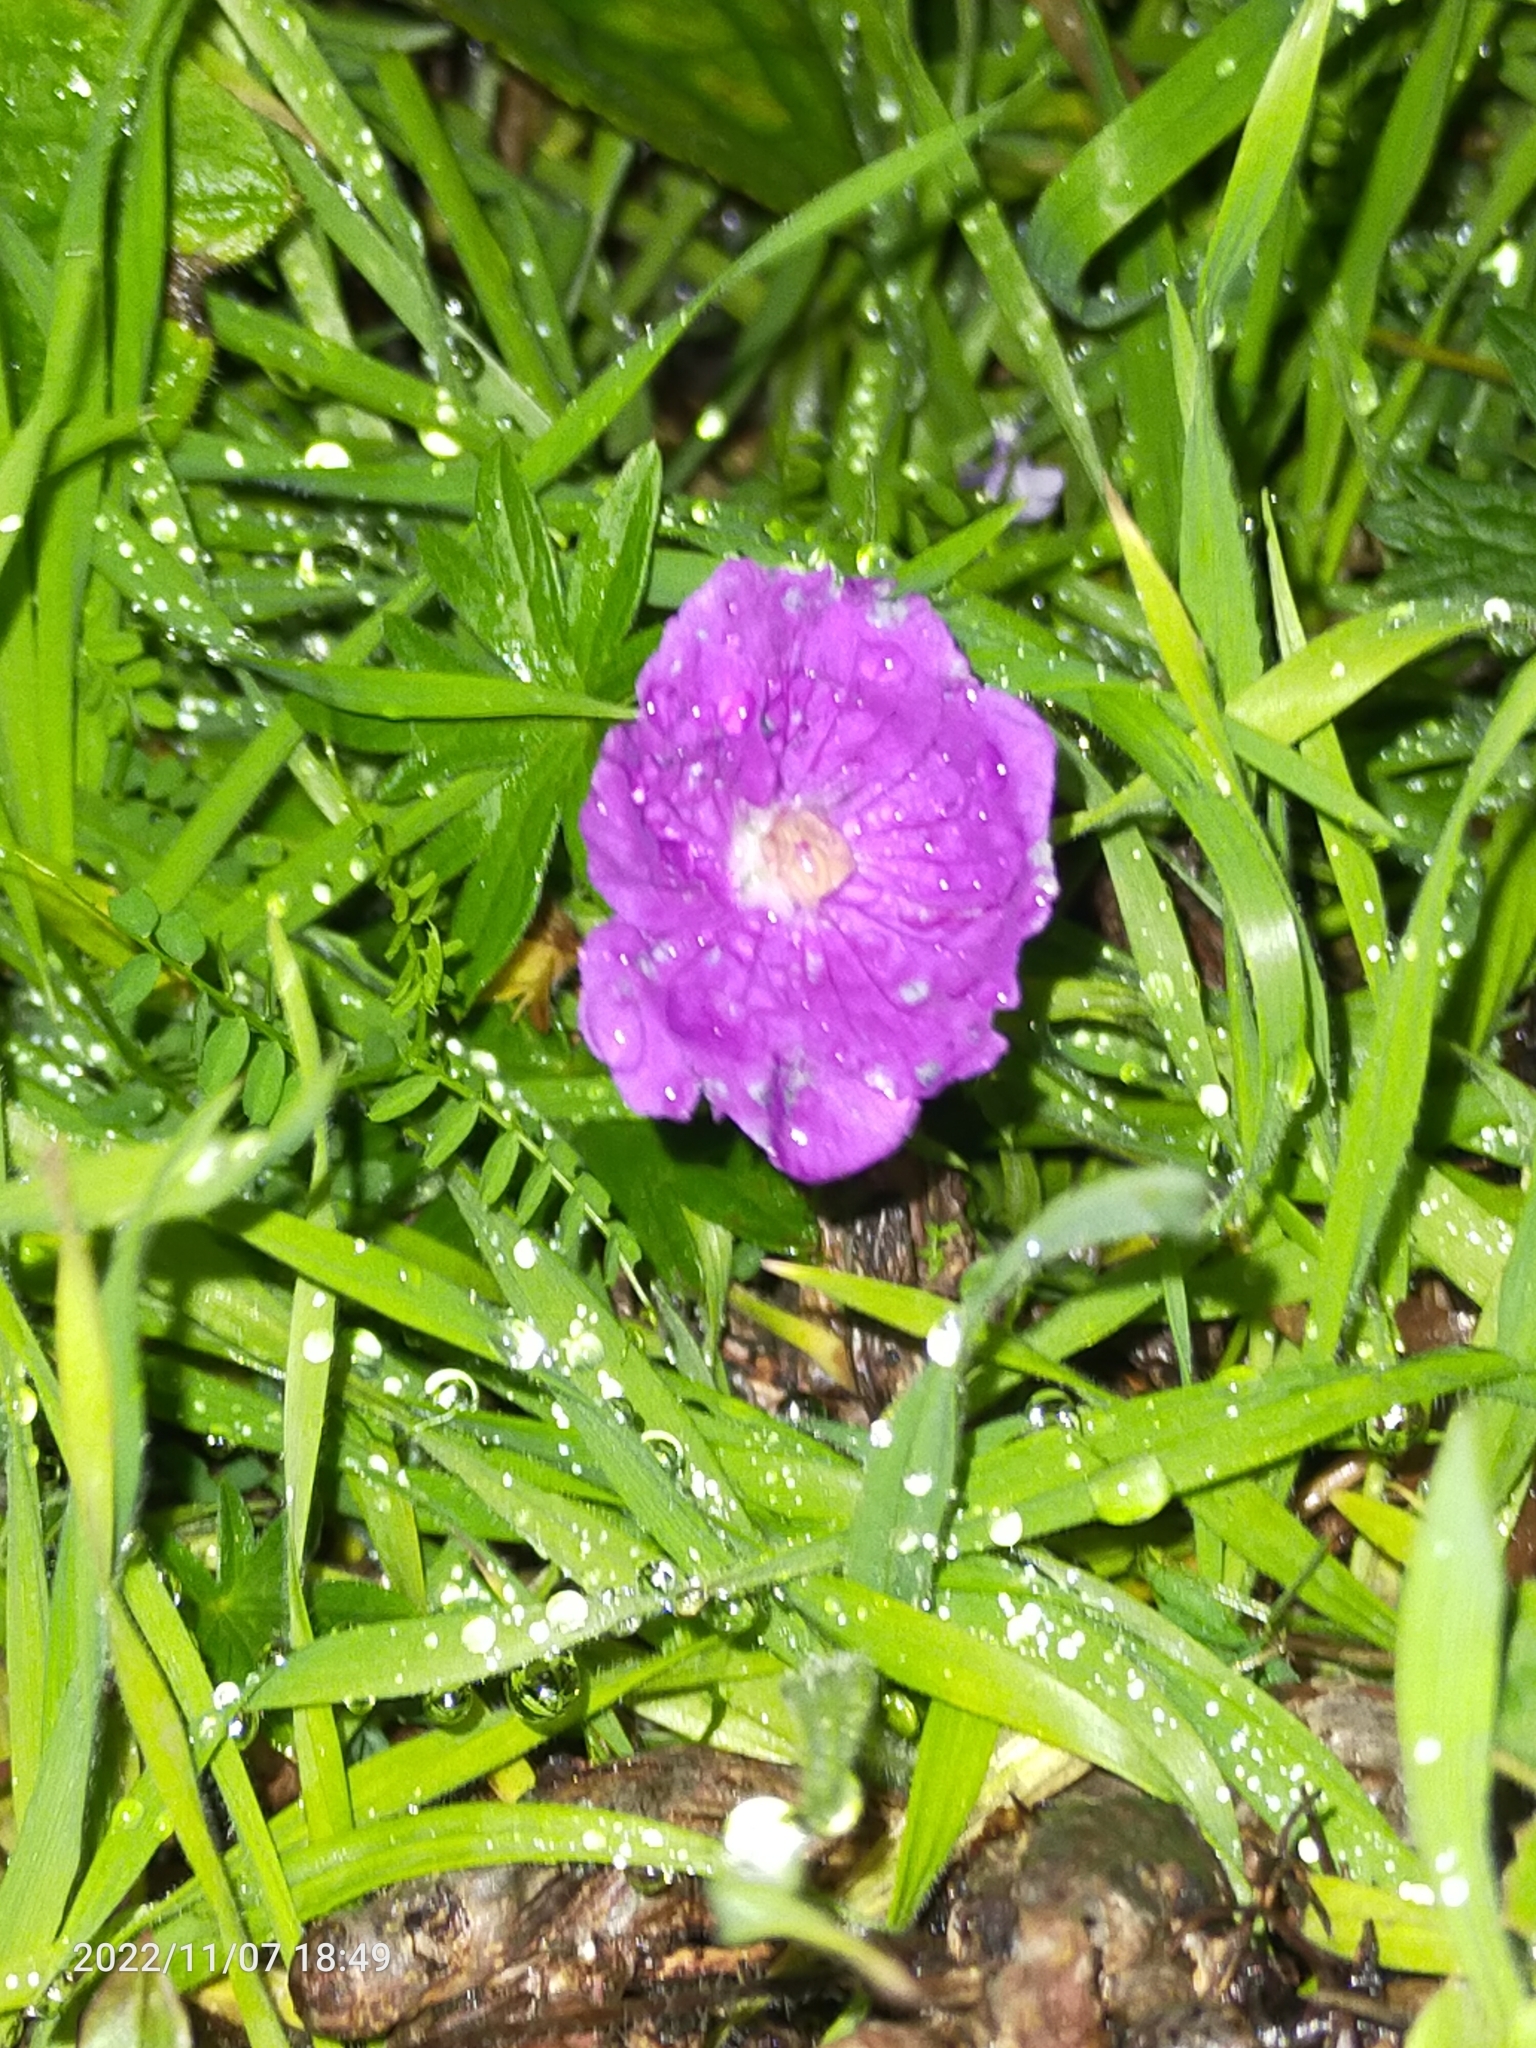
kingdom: Plantae
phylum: Tracheophyta
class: Magnoliopsida
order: Geraniales
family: Geraniaceae
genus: Geranium
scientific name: Geranium sanguineum
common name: Bloody crane's-bill
